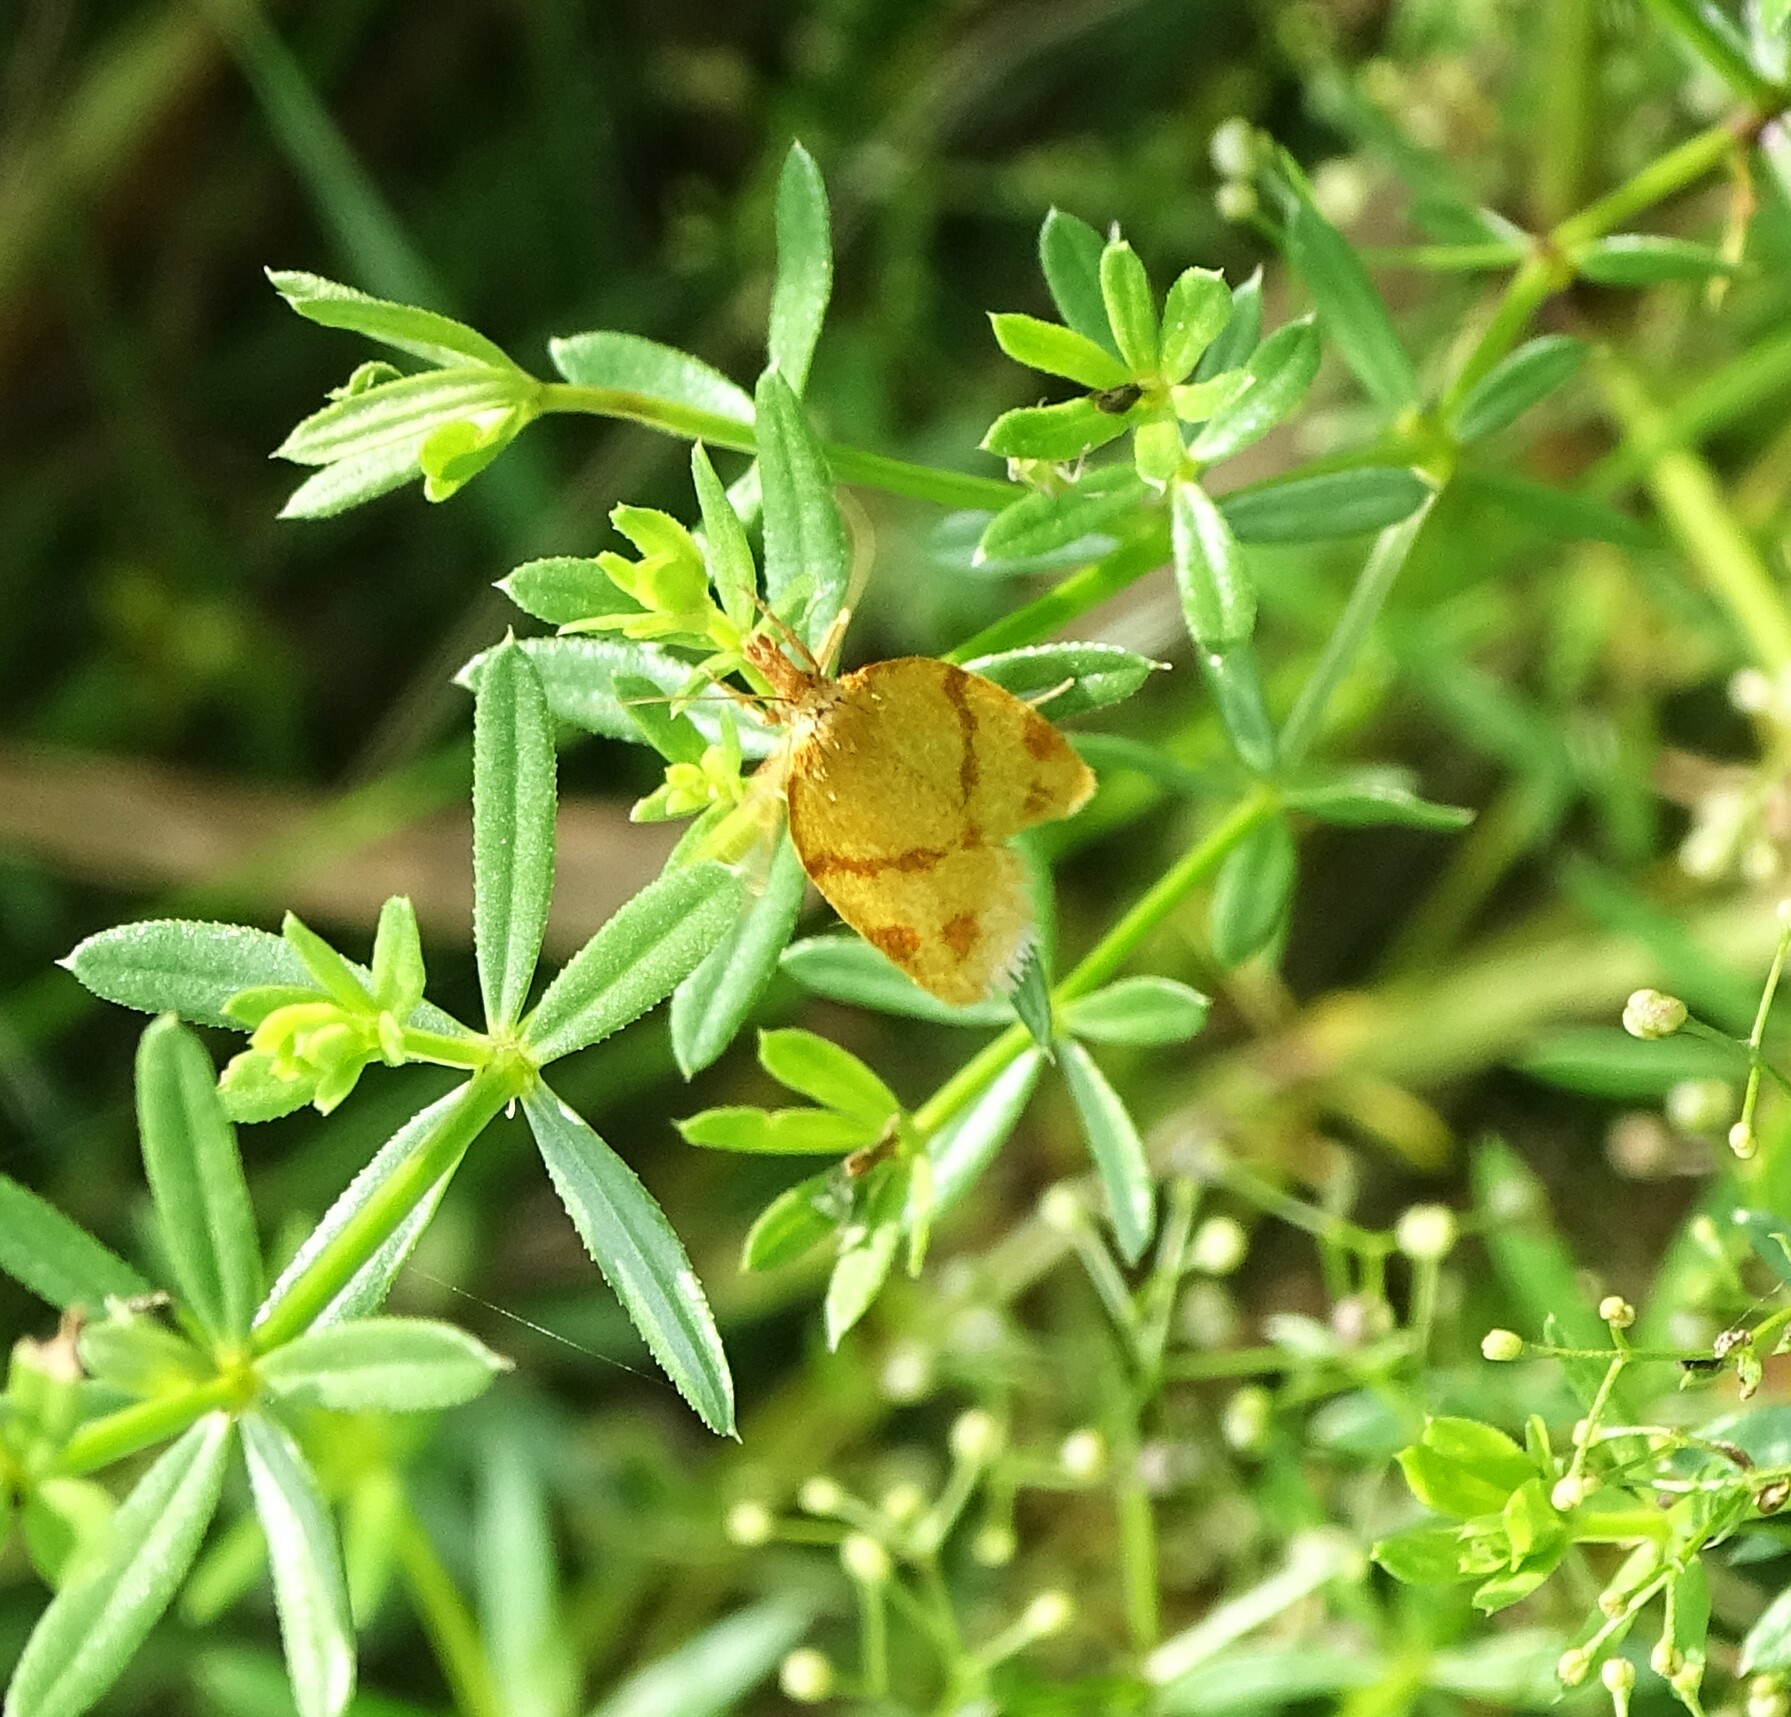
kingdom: Animalia
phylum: Arthropoda
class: Insecta
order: Lepidoptera
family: Tortricidae
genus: Sparganothis
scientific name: Sparganothis unifasciana
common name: One-lined sparganothis moth
